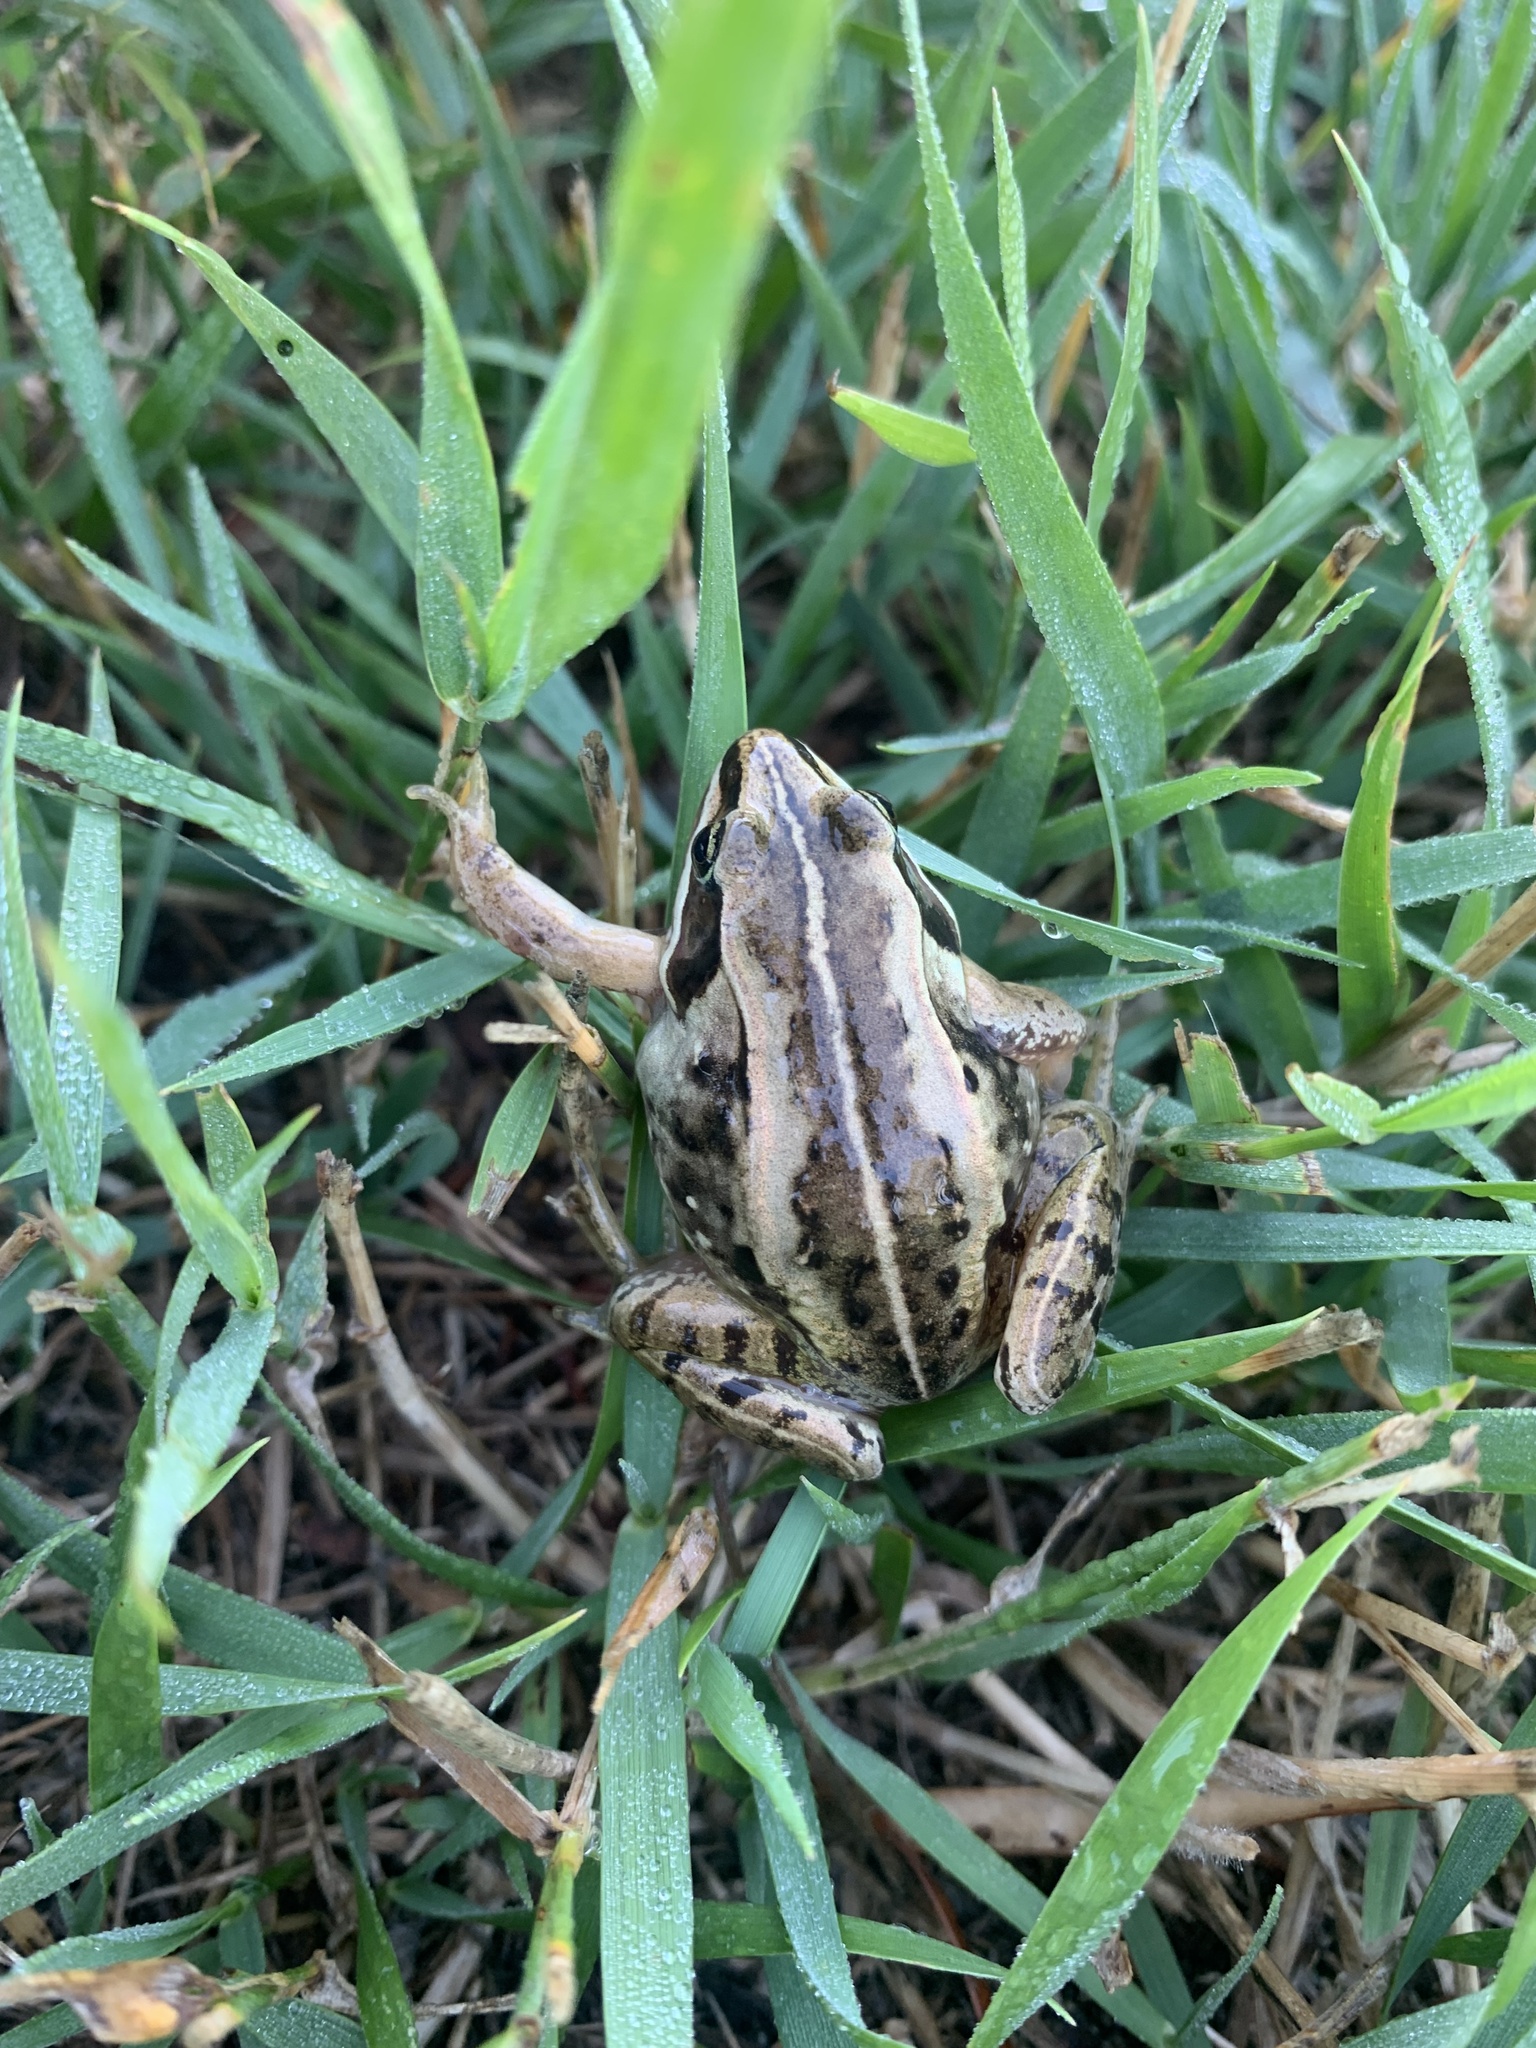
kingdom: Animalia
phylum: Chordata
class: Amphibia
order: Anura
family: Ranidae
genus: Lithobates
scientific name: Lithobates sylvaticus
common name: Wood frog
